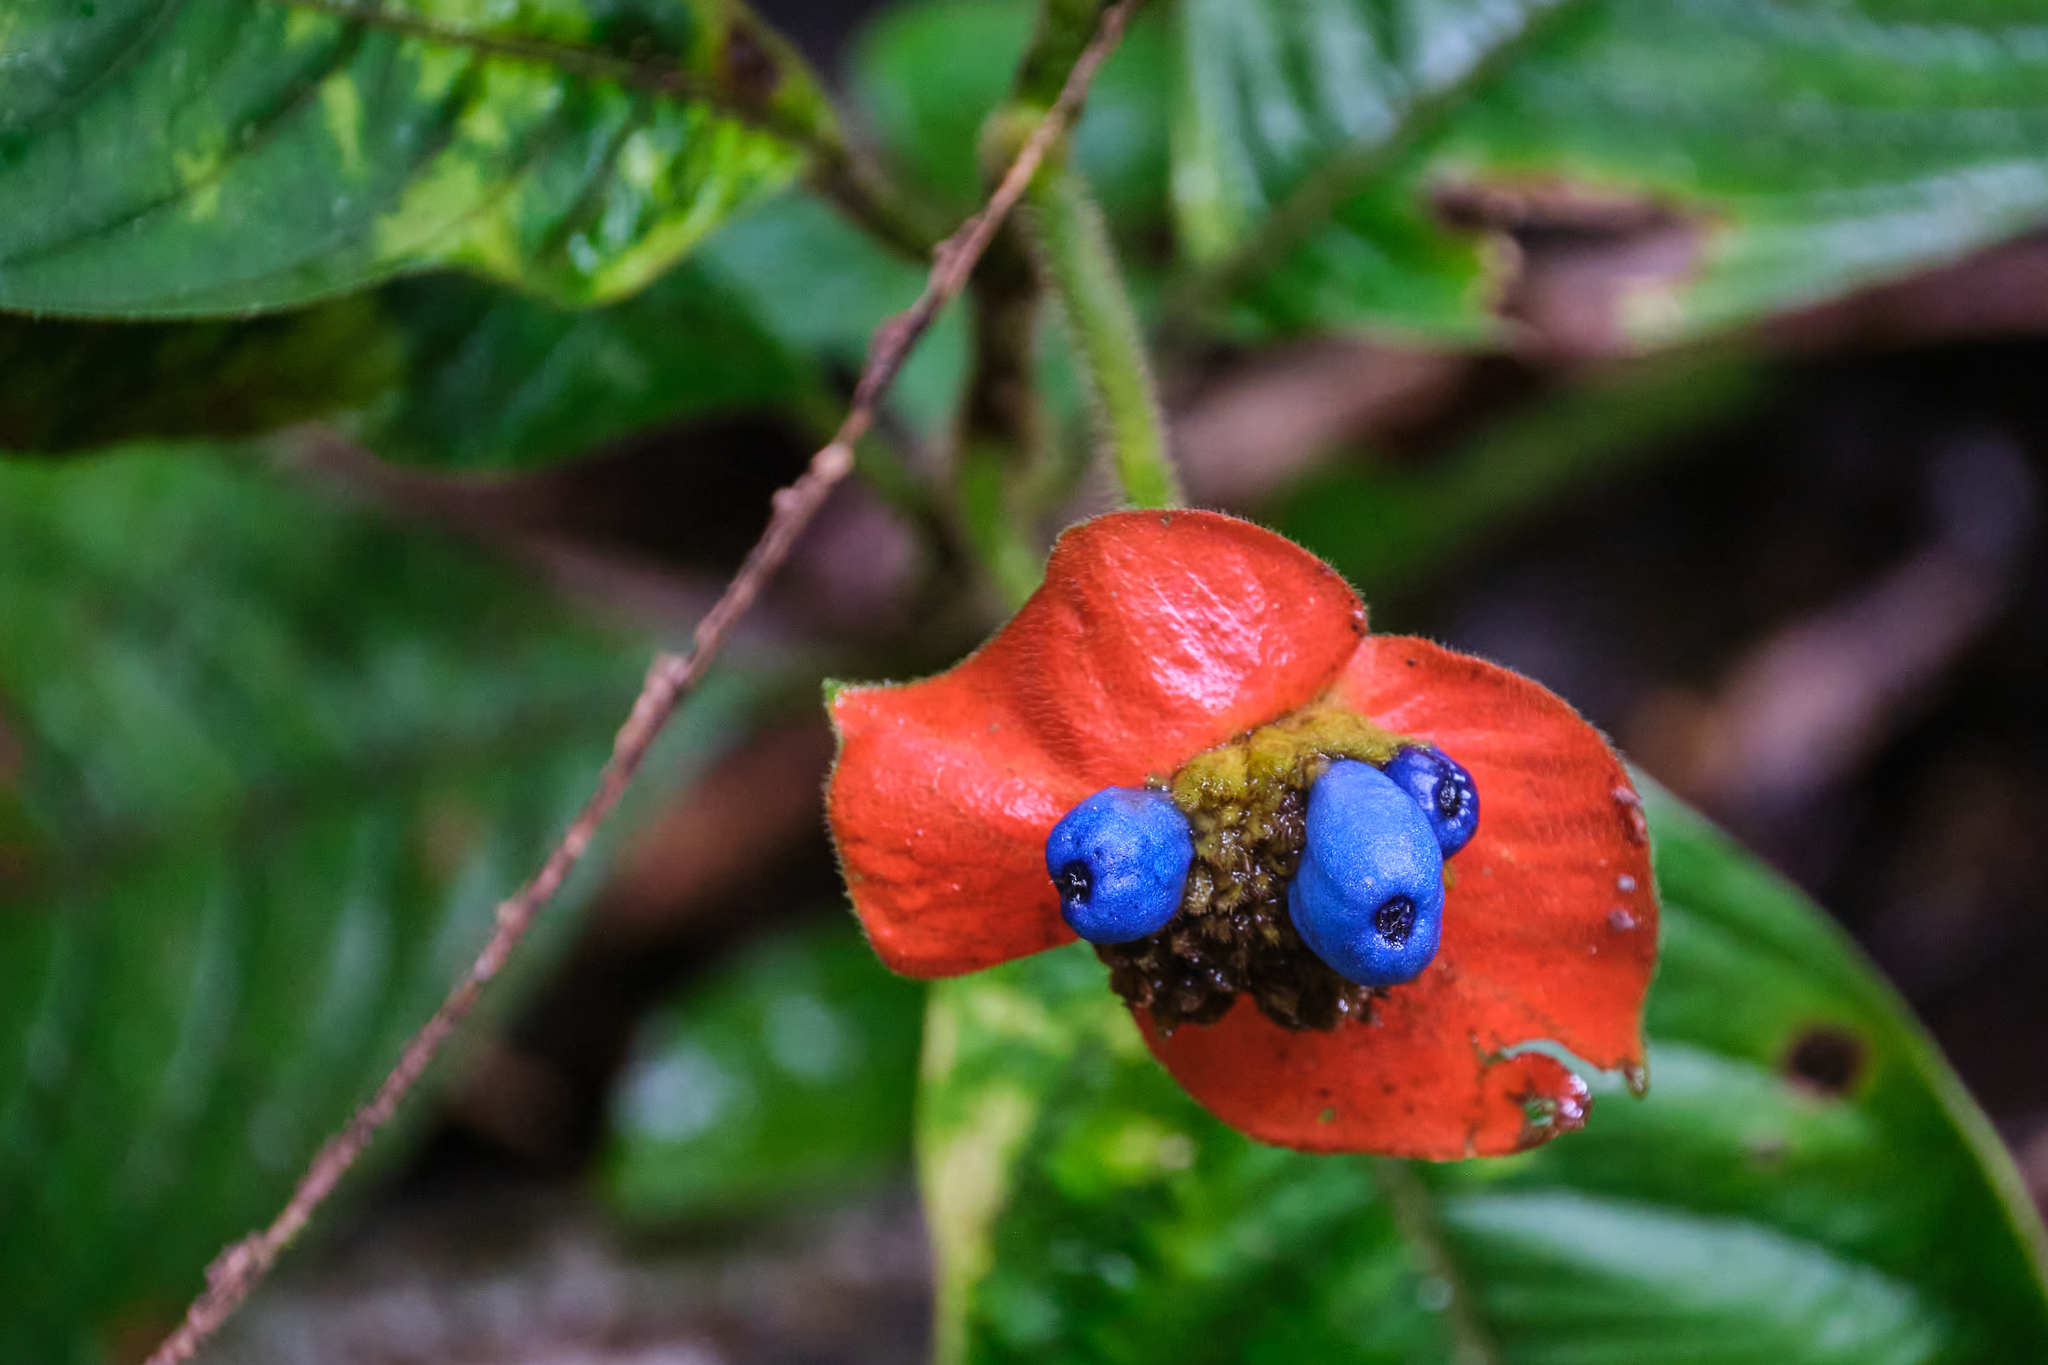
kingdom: Plantae
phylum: Tracheophyta
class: Magnoliopsida
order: Gentianales
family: Rubiaceae
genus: Palicourea
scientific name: Palicourea tomentosa
